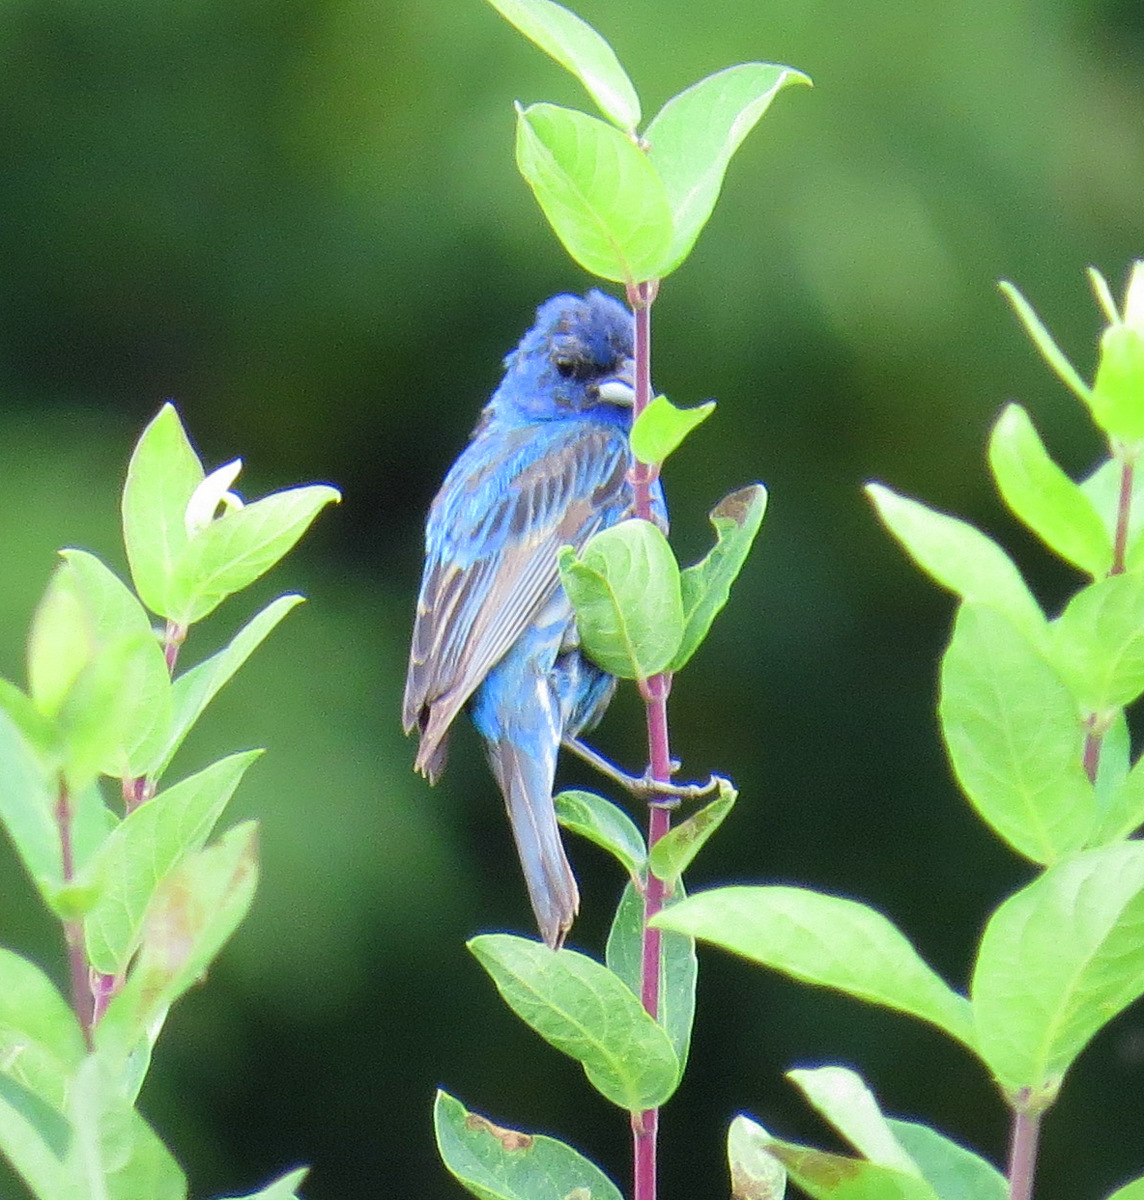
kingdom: Animalia
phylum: Chordata
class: Aves
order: Passeriformes
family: Cardinalidae
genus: Passerina
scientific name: Passerina cyanea
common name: Indigo bunting
